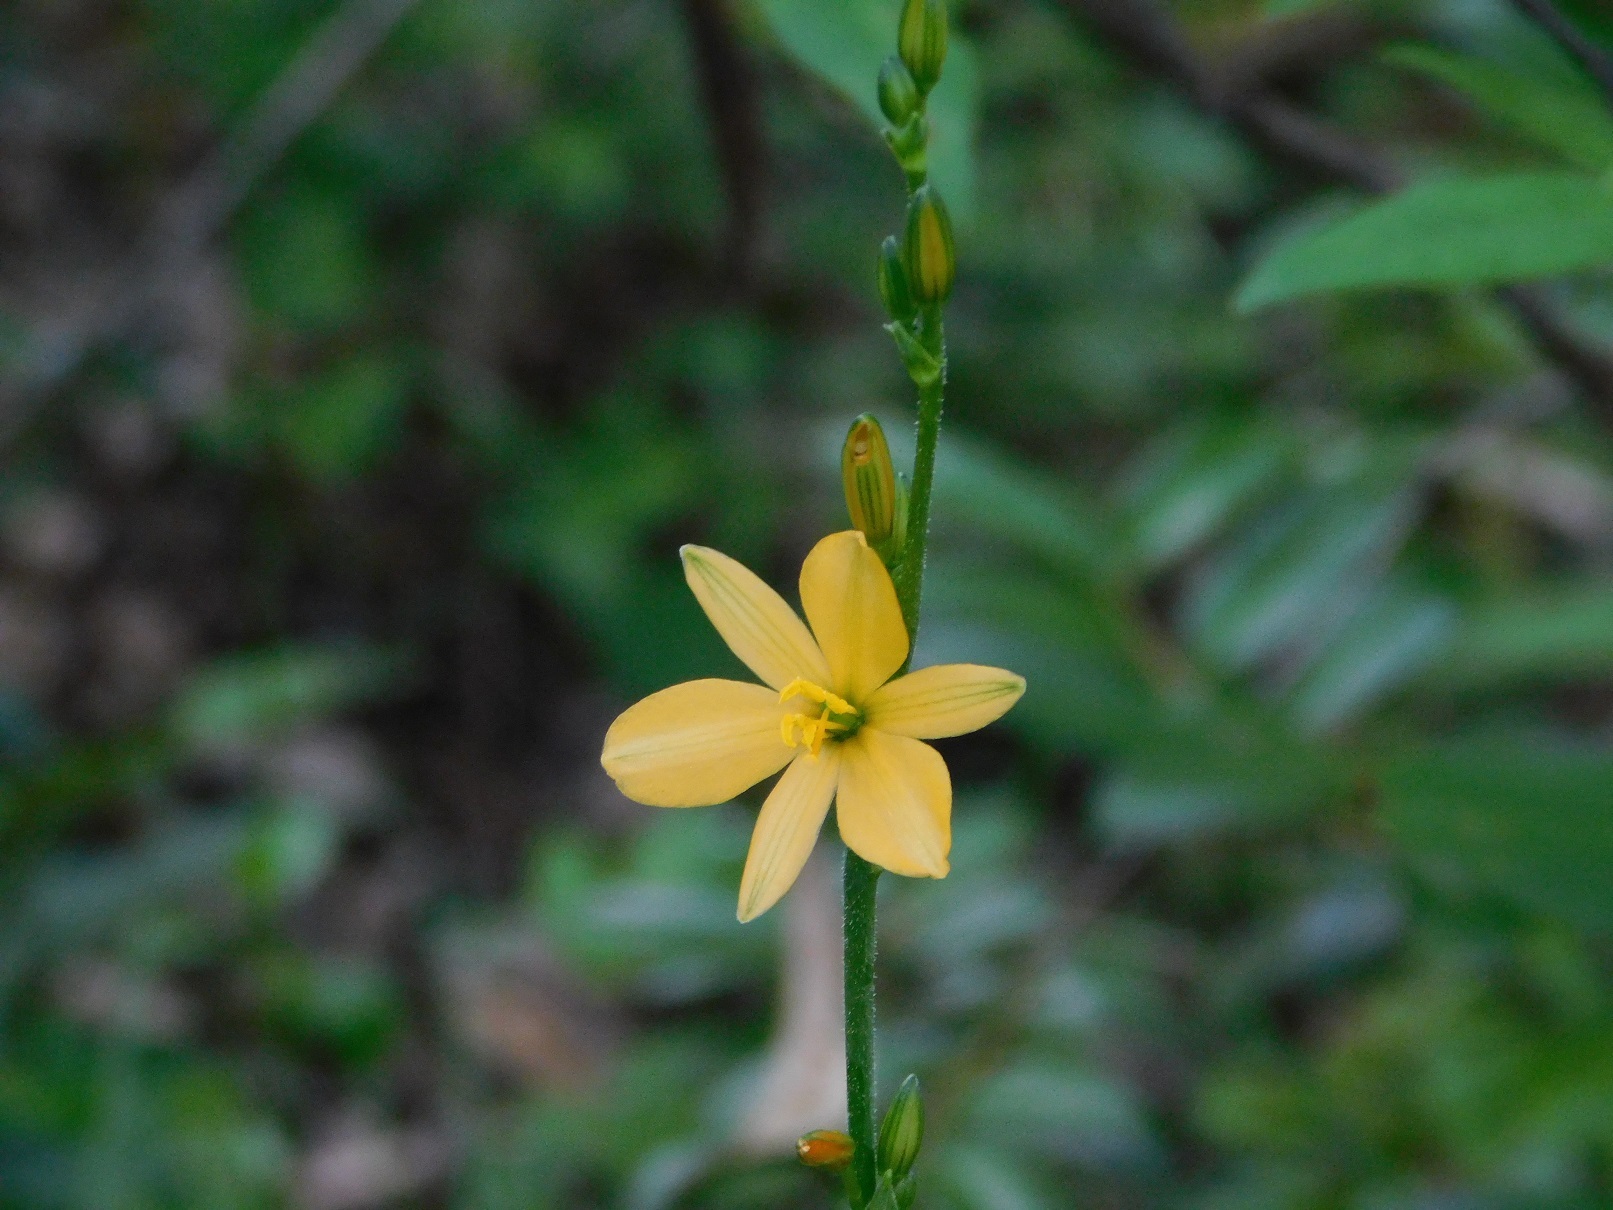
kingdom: Plantae
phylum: Tracheophyta
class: Liliopsida
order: Asparagales
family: Asparagaceae
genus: Echeandia
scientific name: Echeandia skinneri
